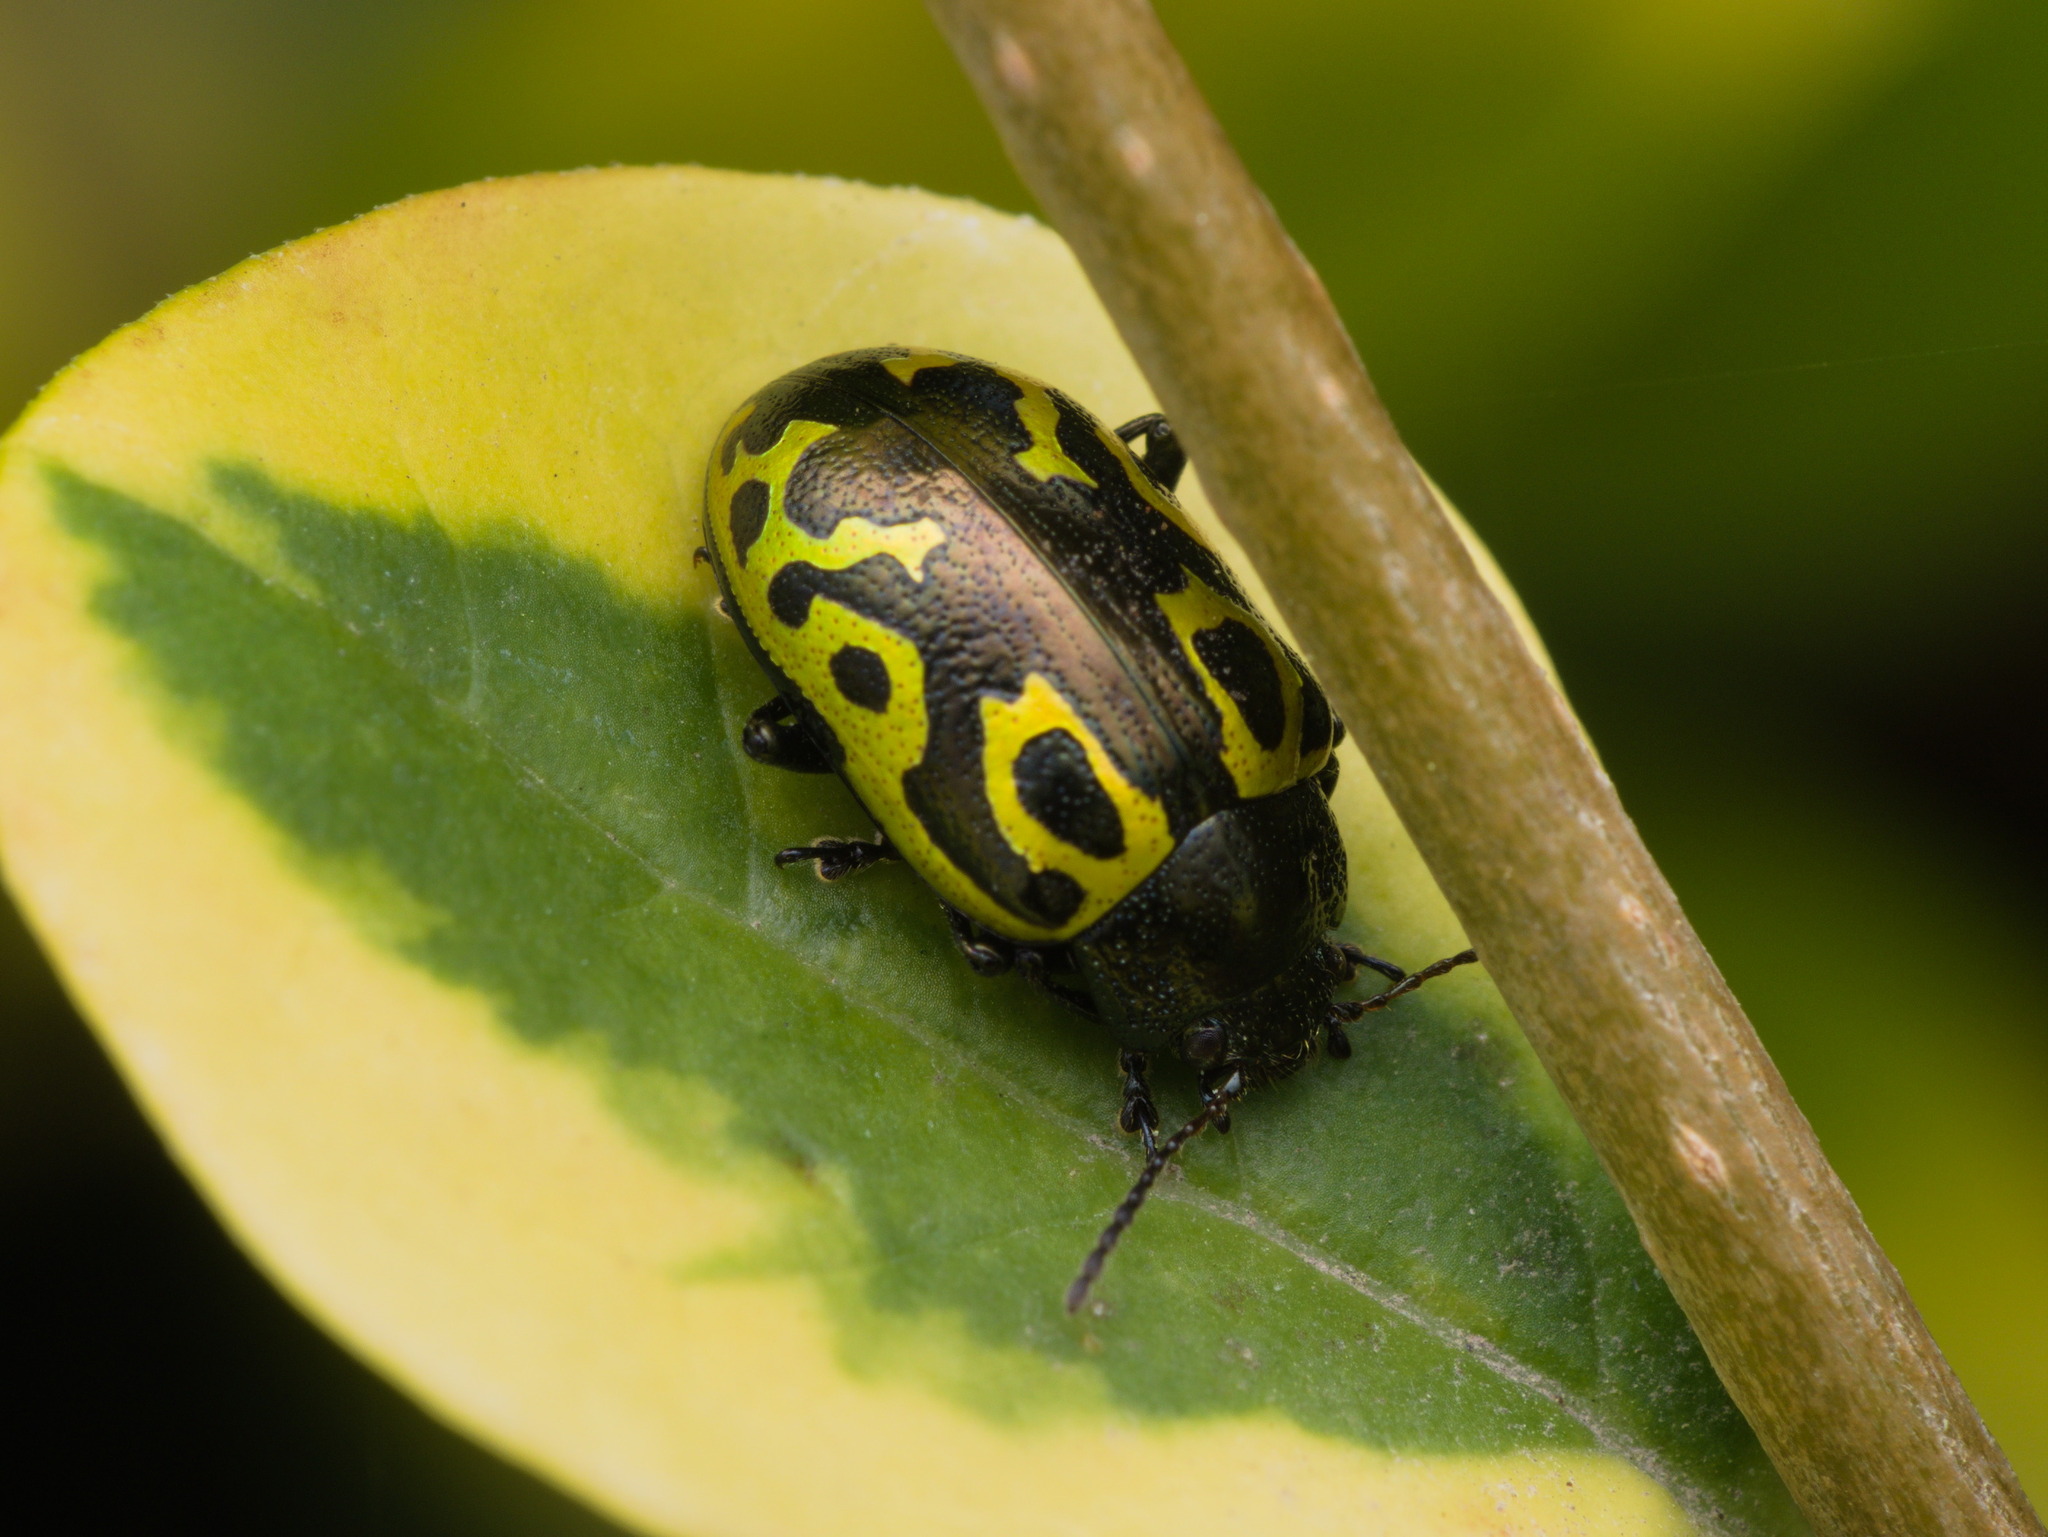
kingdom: Animalia
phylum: Arthropoda
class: Insecta
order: Coleoptera
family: Chrysomelidae
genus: Calligrapha
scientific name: Calligrapha
